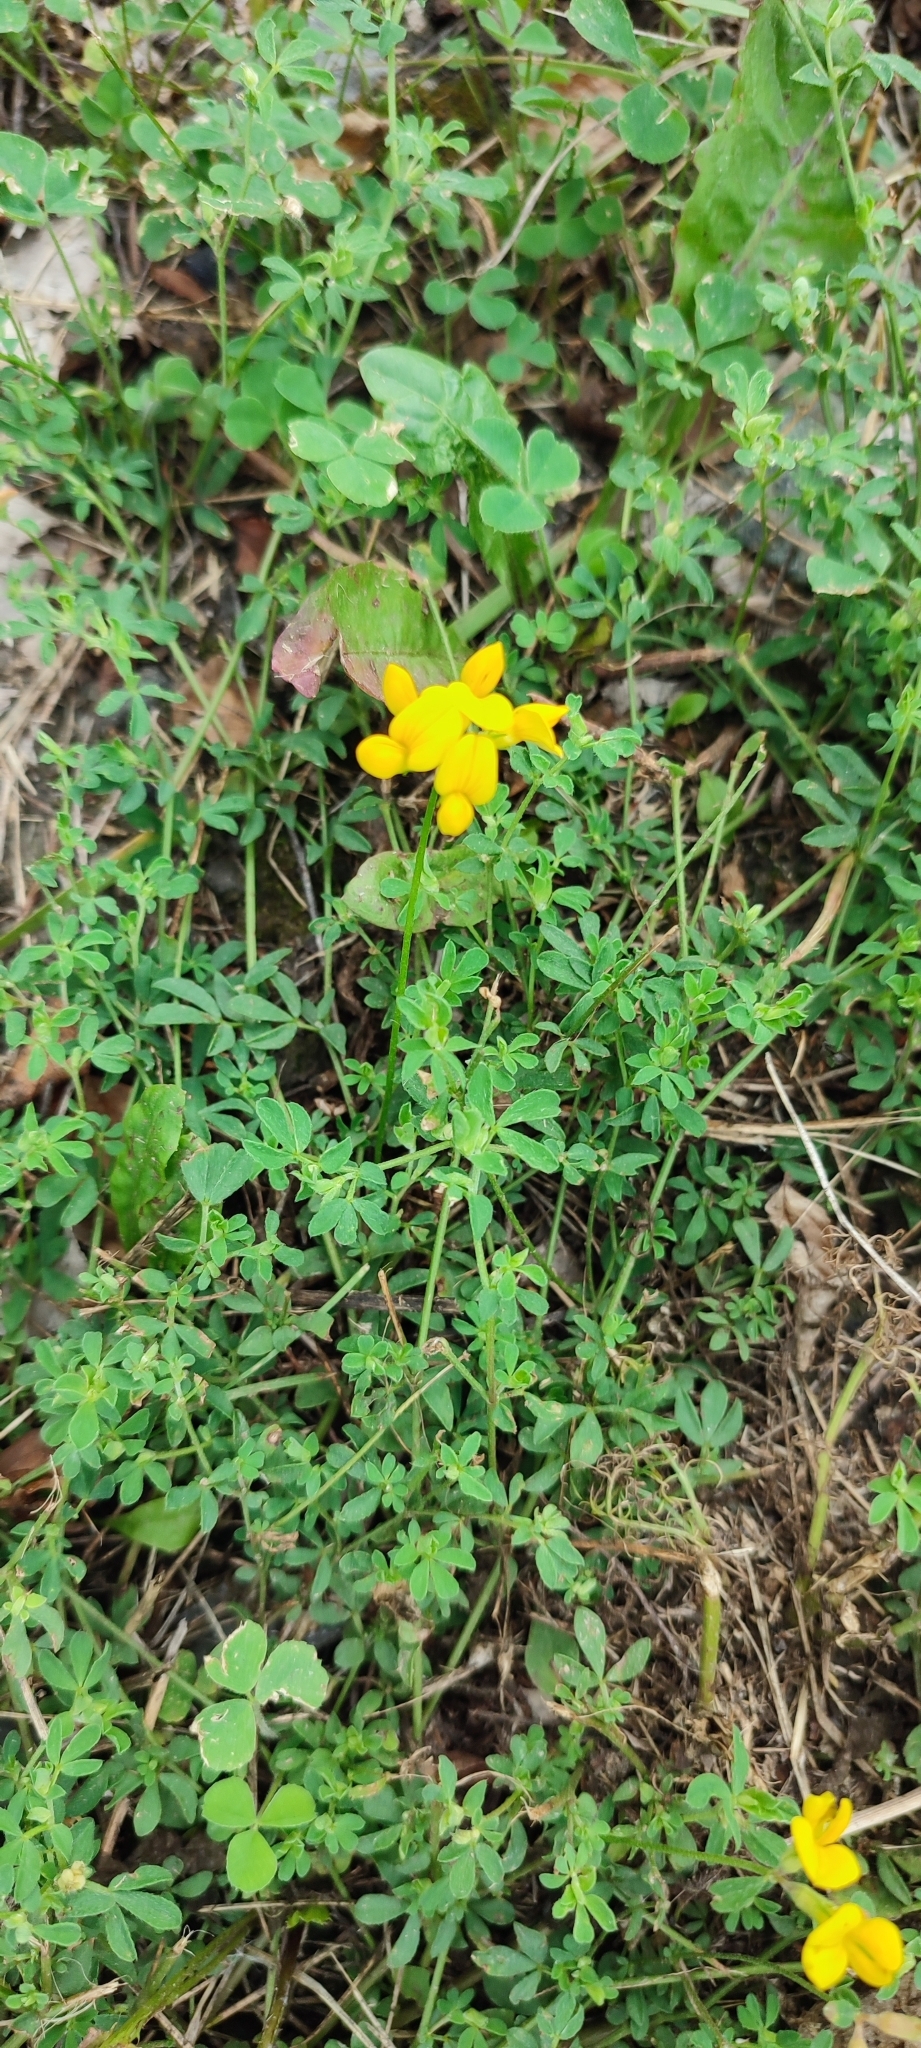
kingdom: Plantae
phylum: Tracheophyta
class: Magnoliopsida
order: Fabales
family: Fabaceae
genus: Lotus
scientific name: Lotus corniculatus
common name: Common bird's-foot-trefoil
